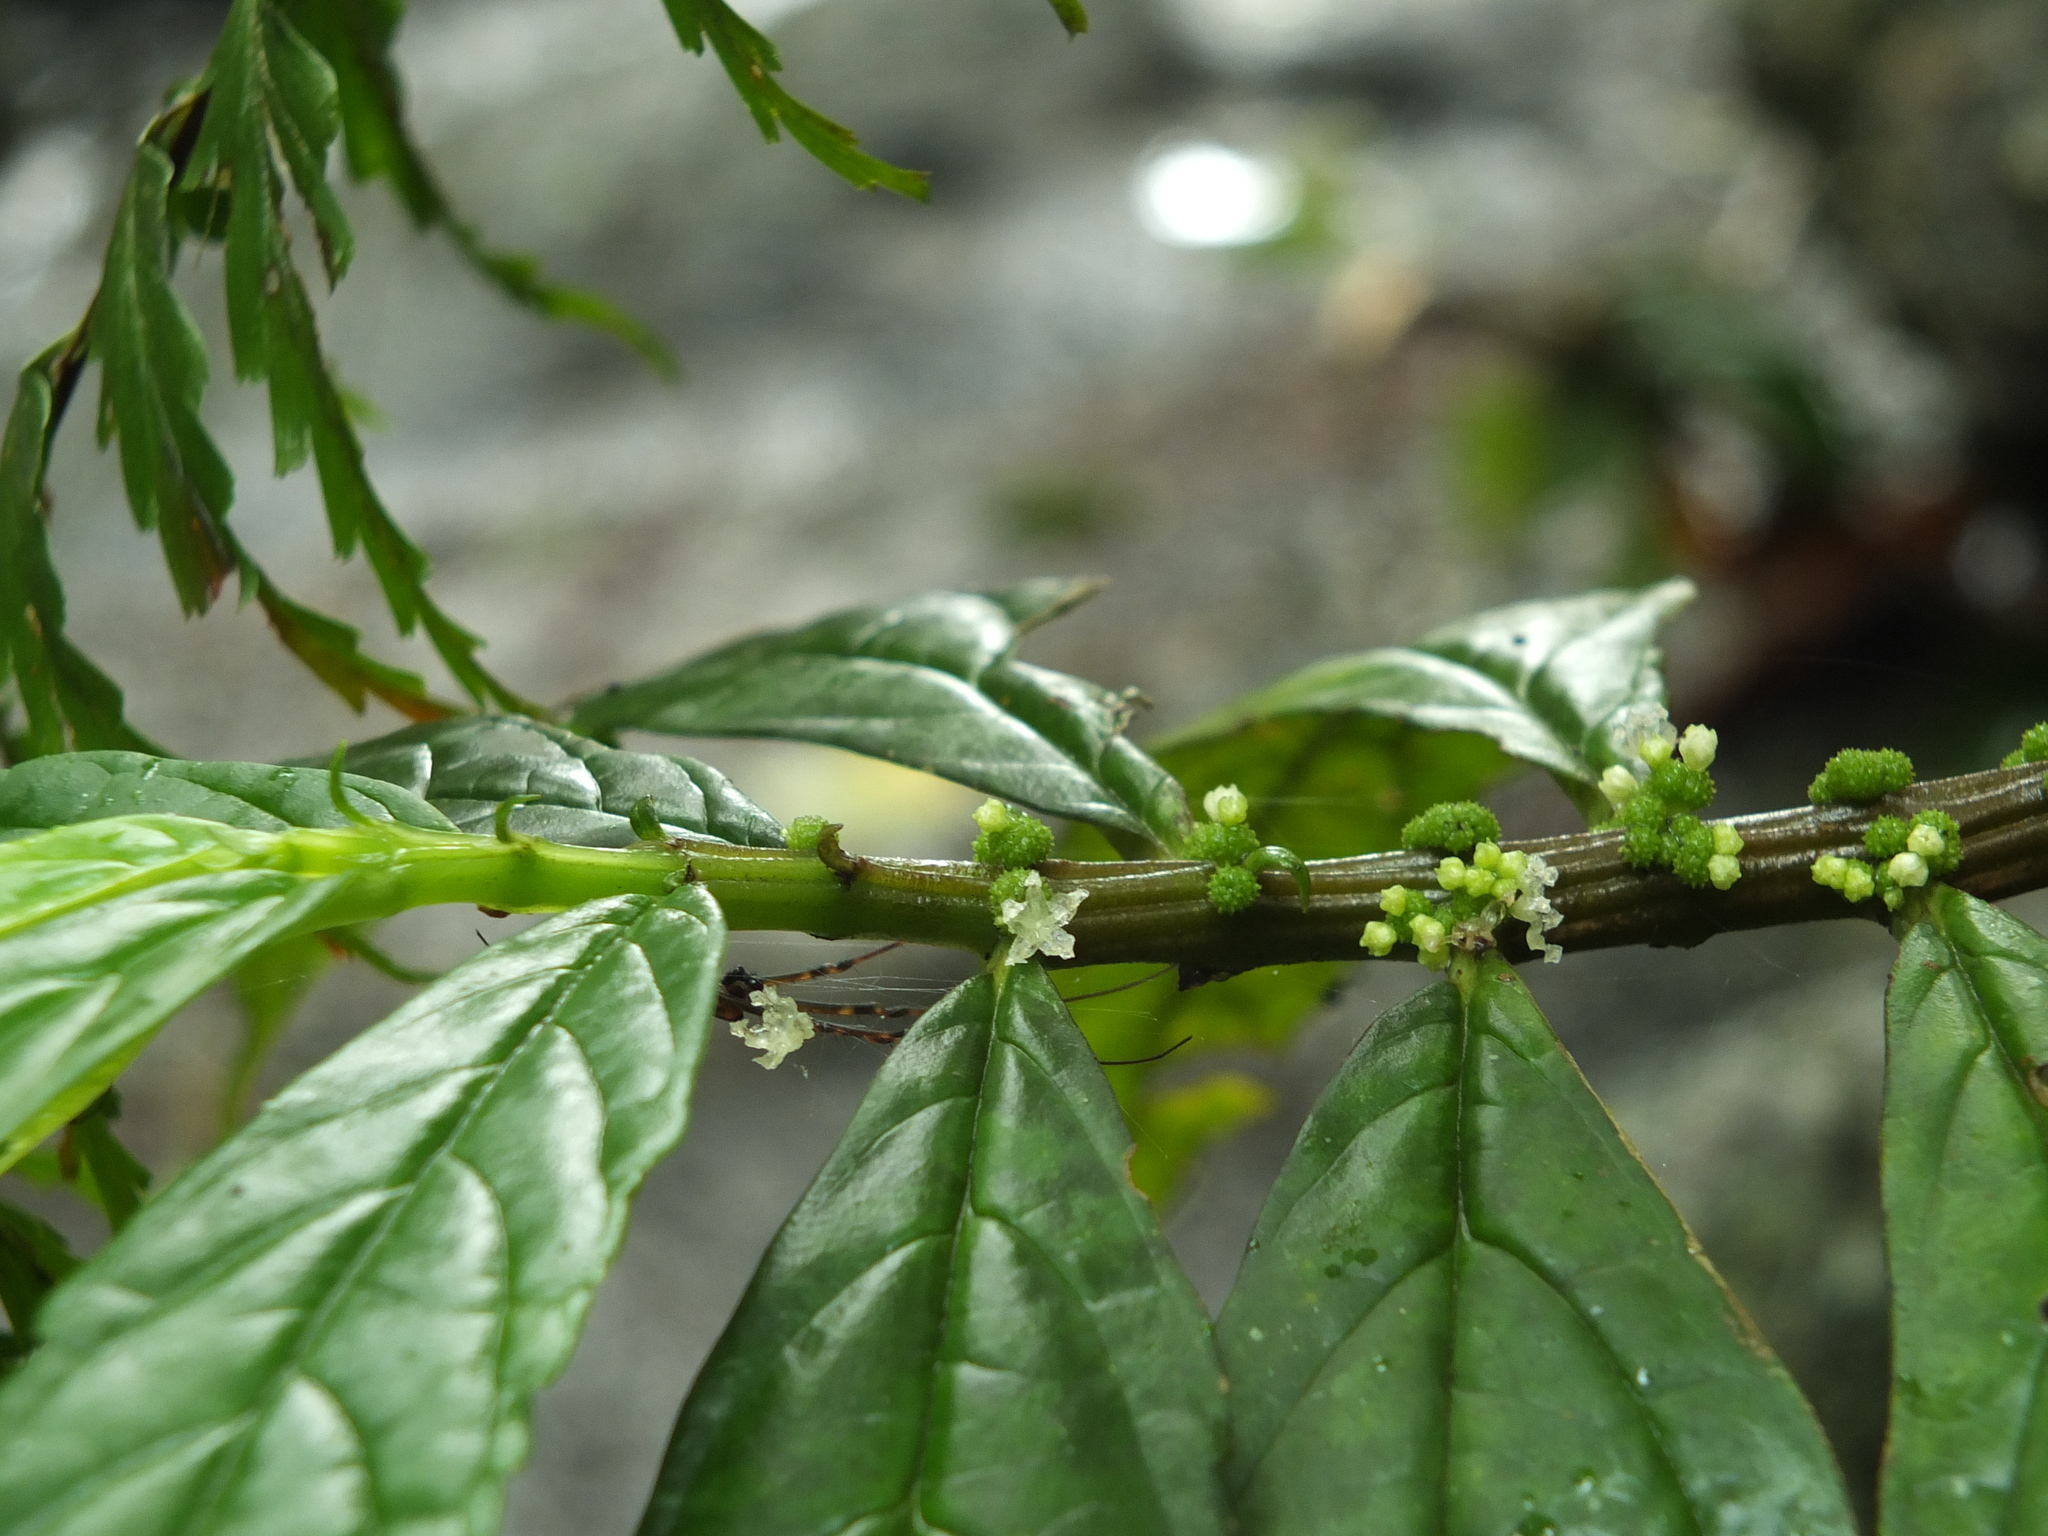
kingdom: Plantae
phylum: Tracheophyta
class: Magnoliopsida
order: Rosales
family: Urticaceae
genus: Elatostema
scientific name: Elatostema monandrum
